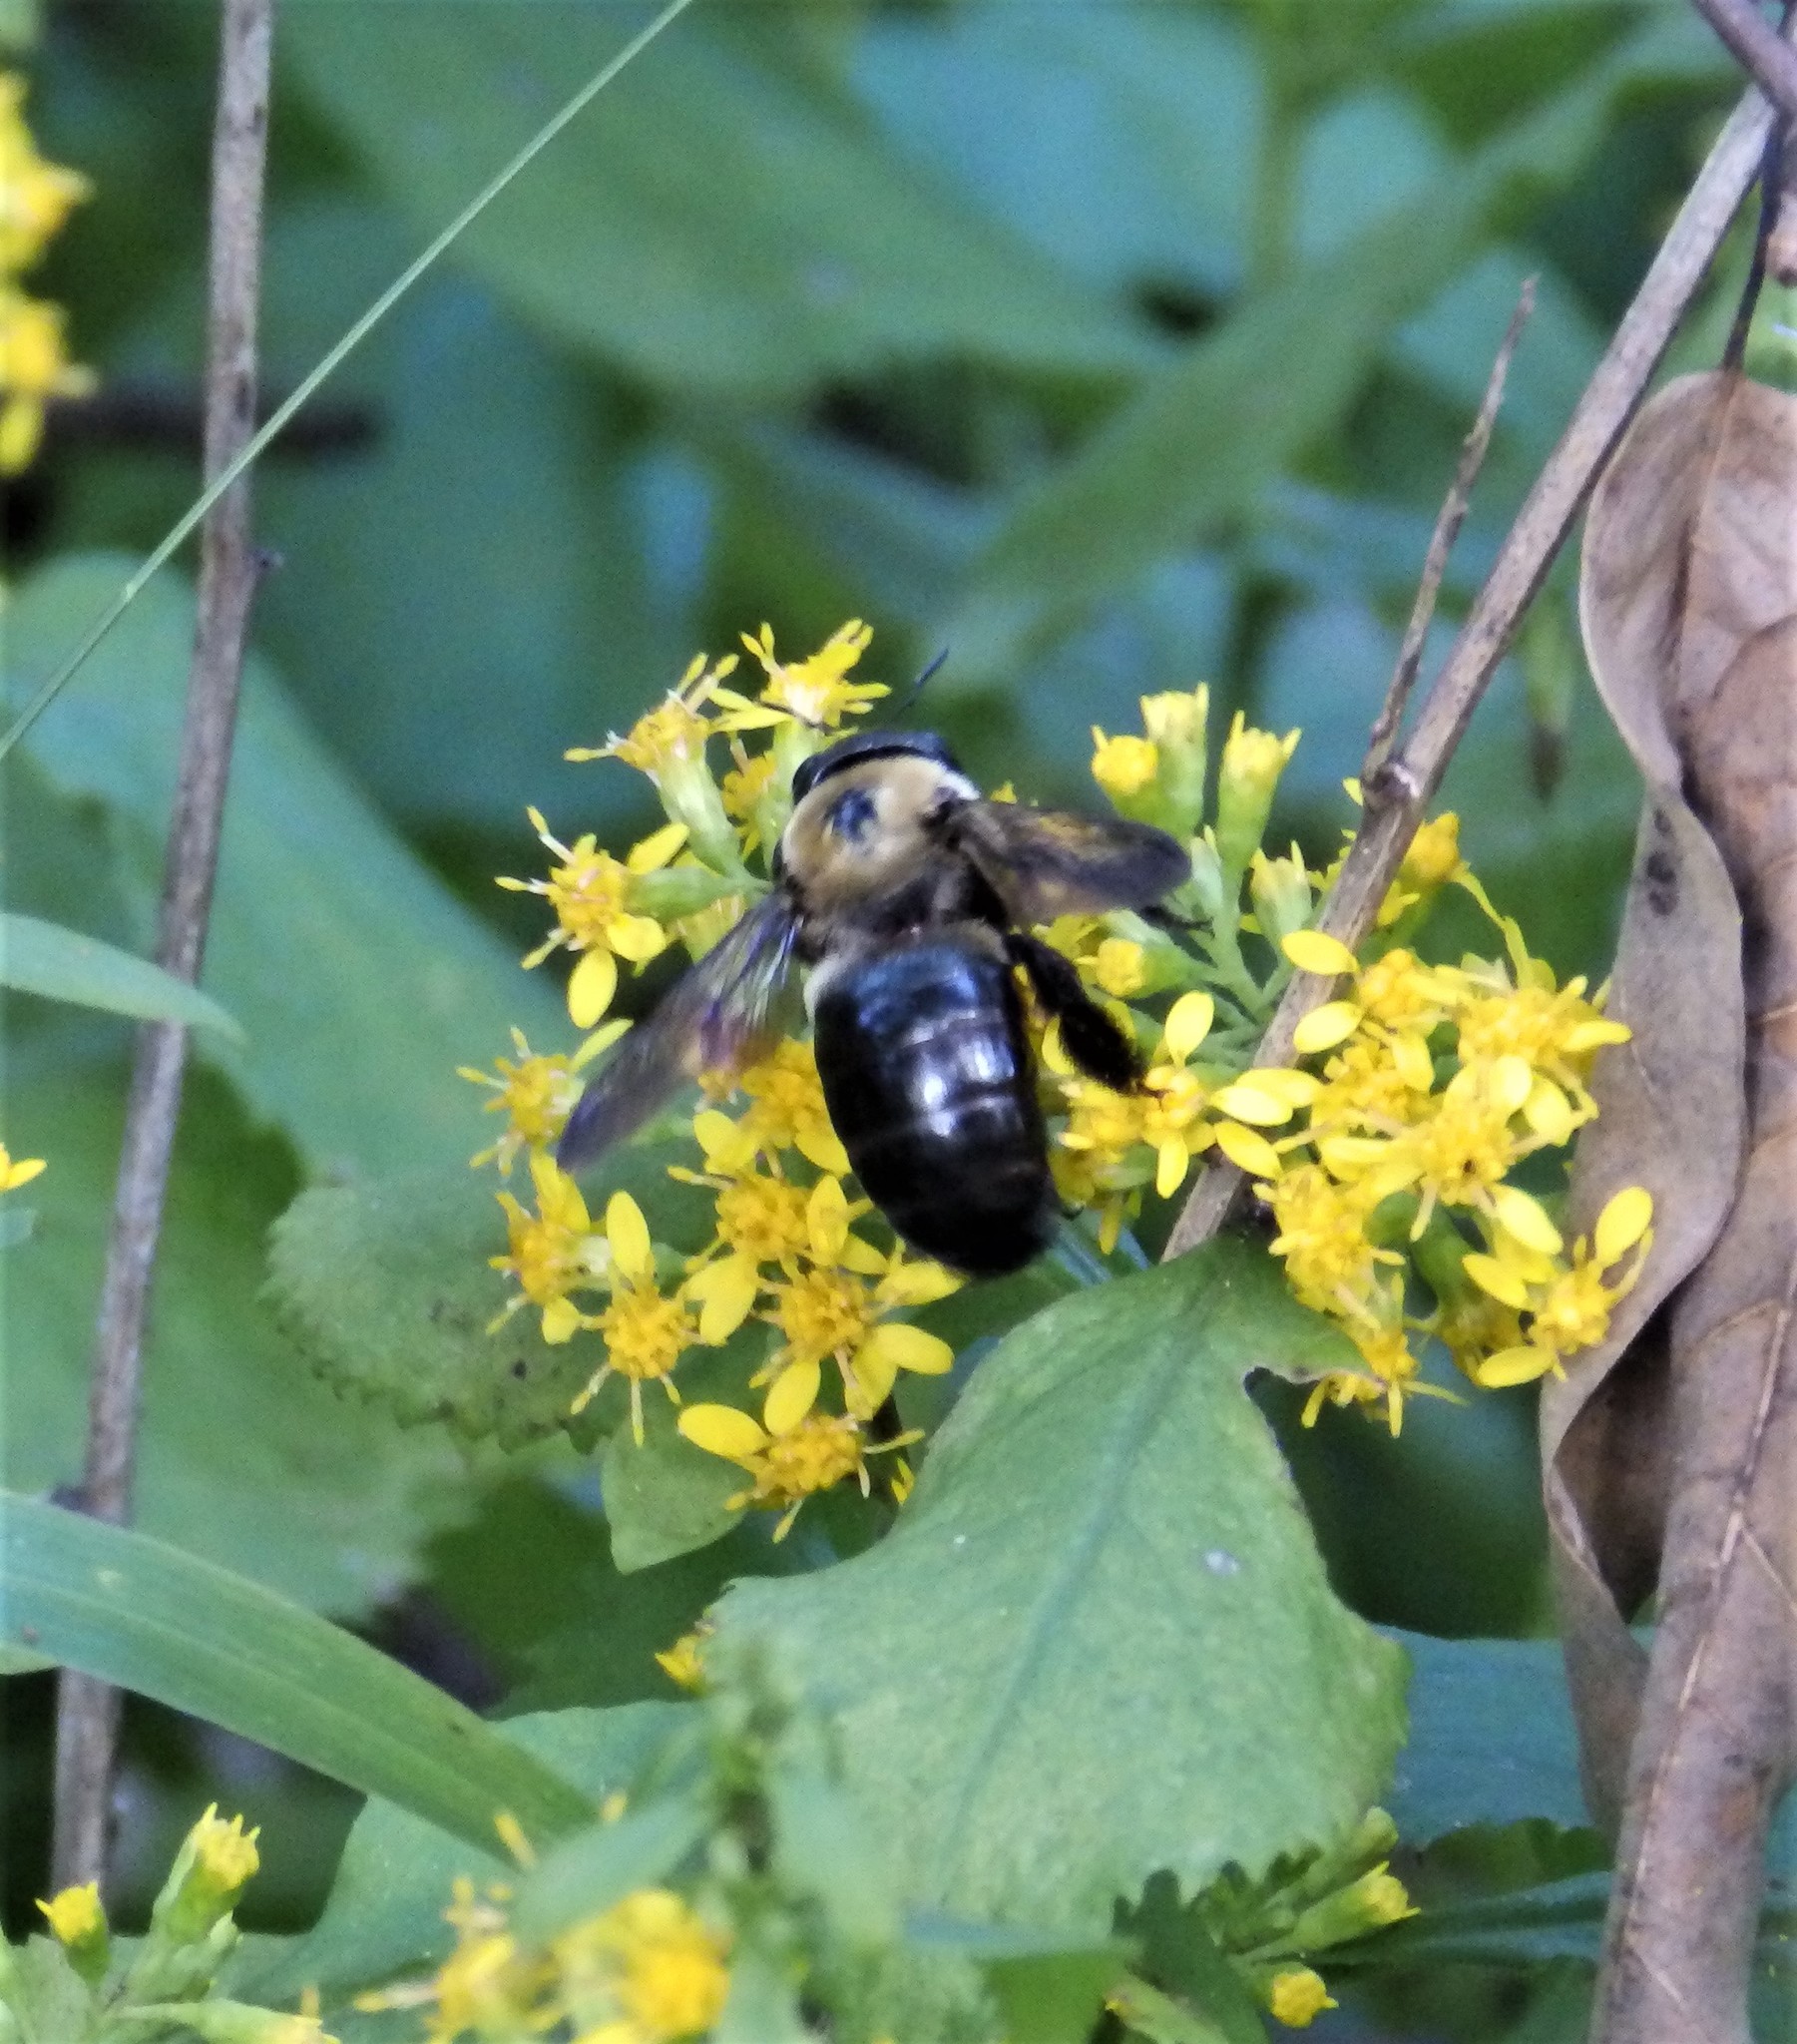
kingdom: Animalia
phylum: Arthropoda
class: Insecta
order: Hymenoptera
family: Apidae
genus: Xylocopa
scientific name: Xylocopa virginica
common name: Carpenter bee
